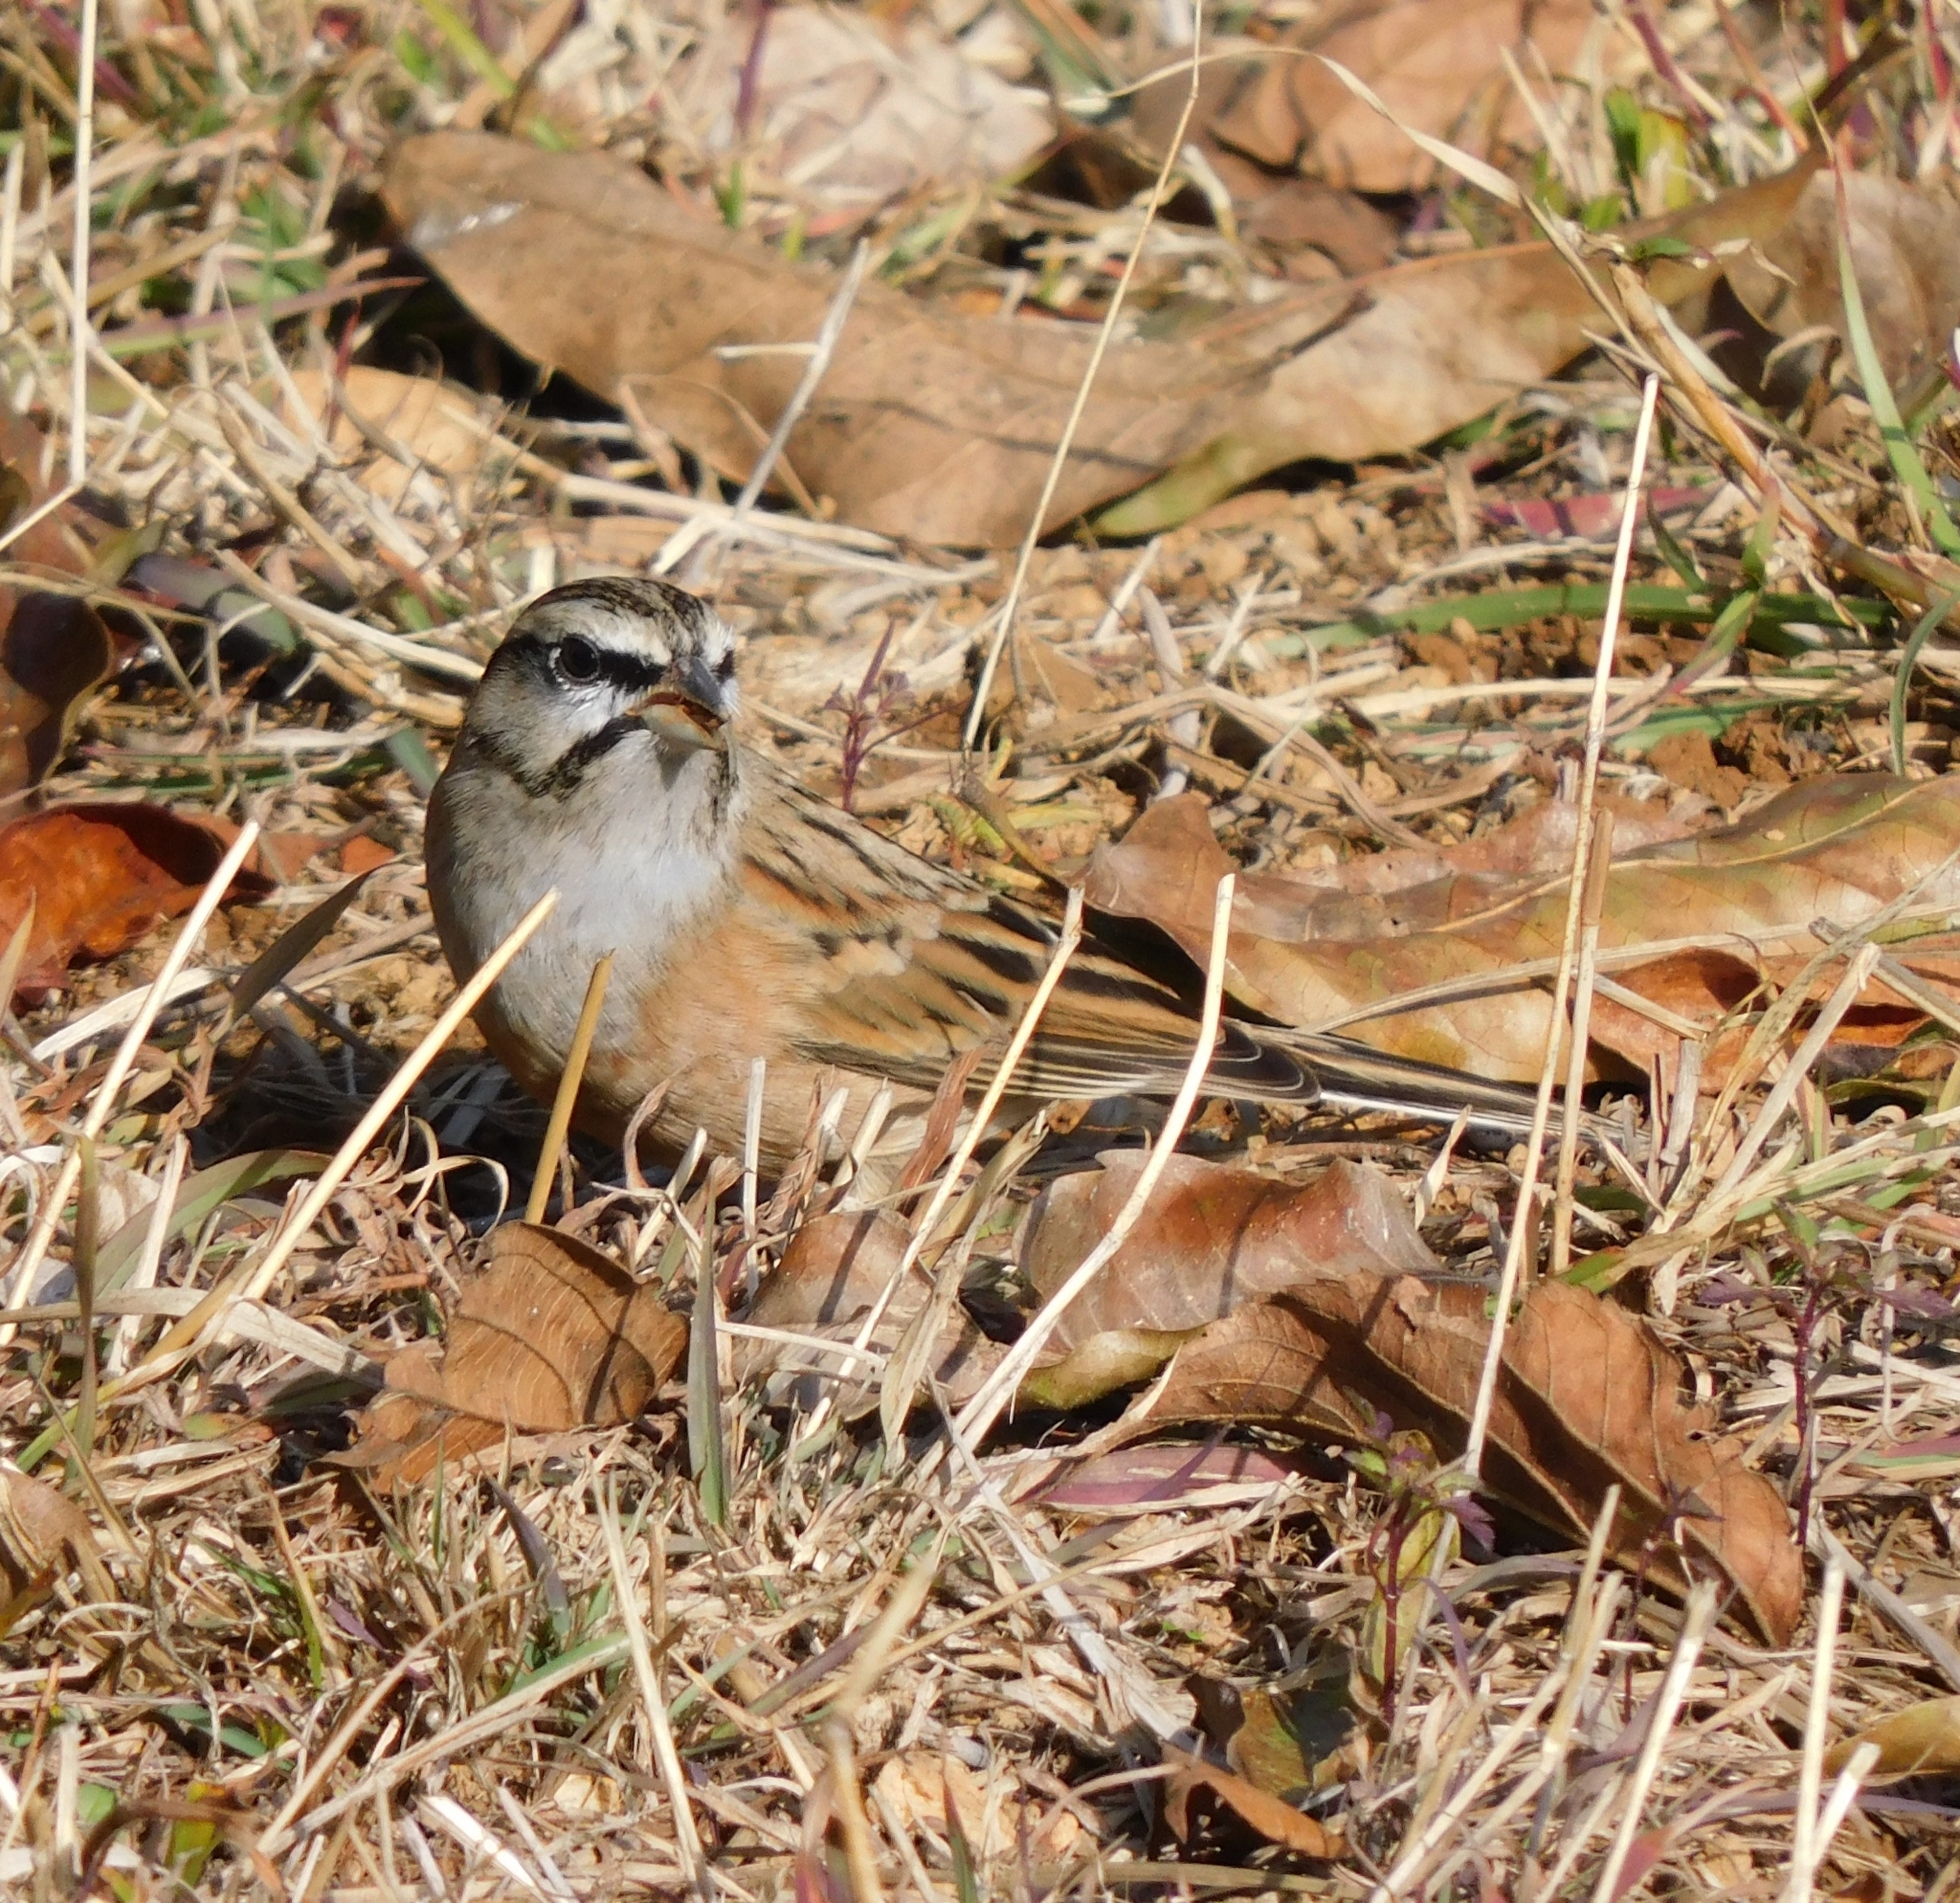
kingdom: Animalia
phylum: Chordata
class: Aves
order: Passeriformes
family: Emberizidae
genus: Emberiza
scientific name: Emberiza cia
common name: Rock bunting
